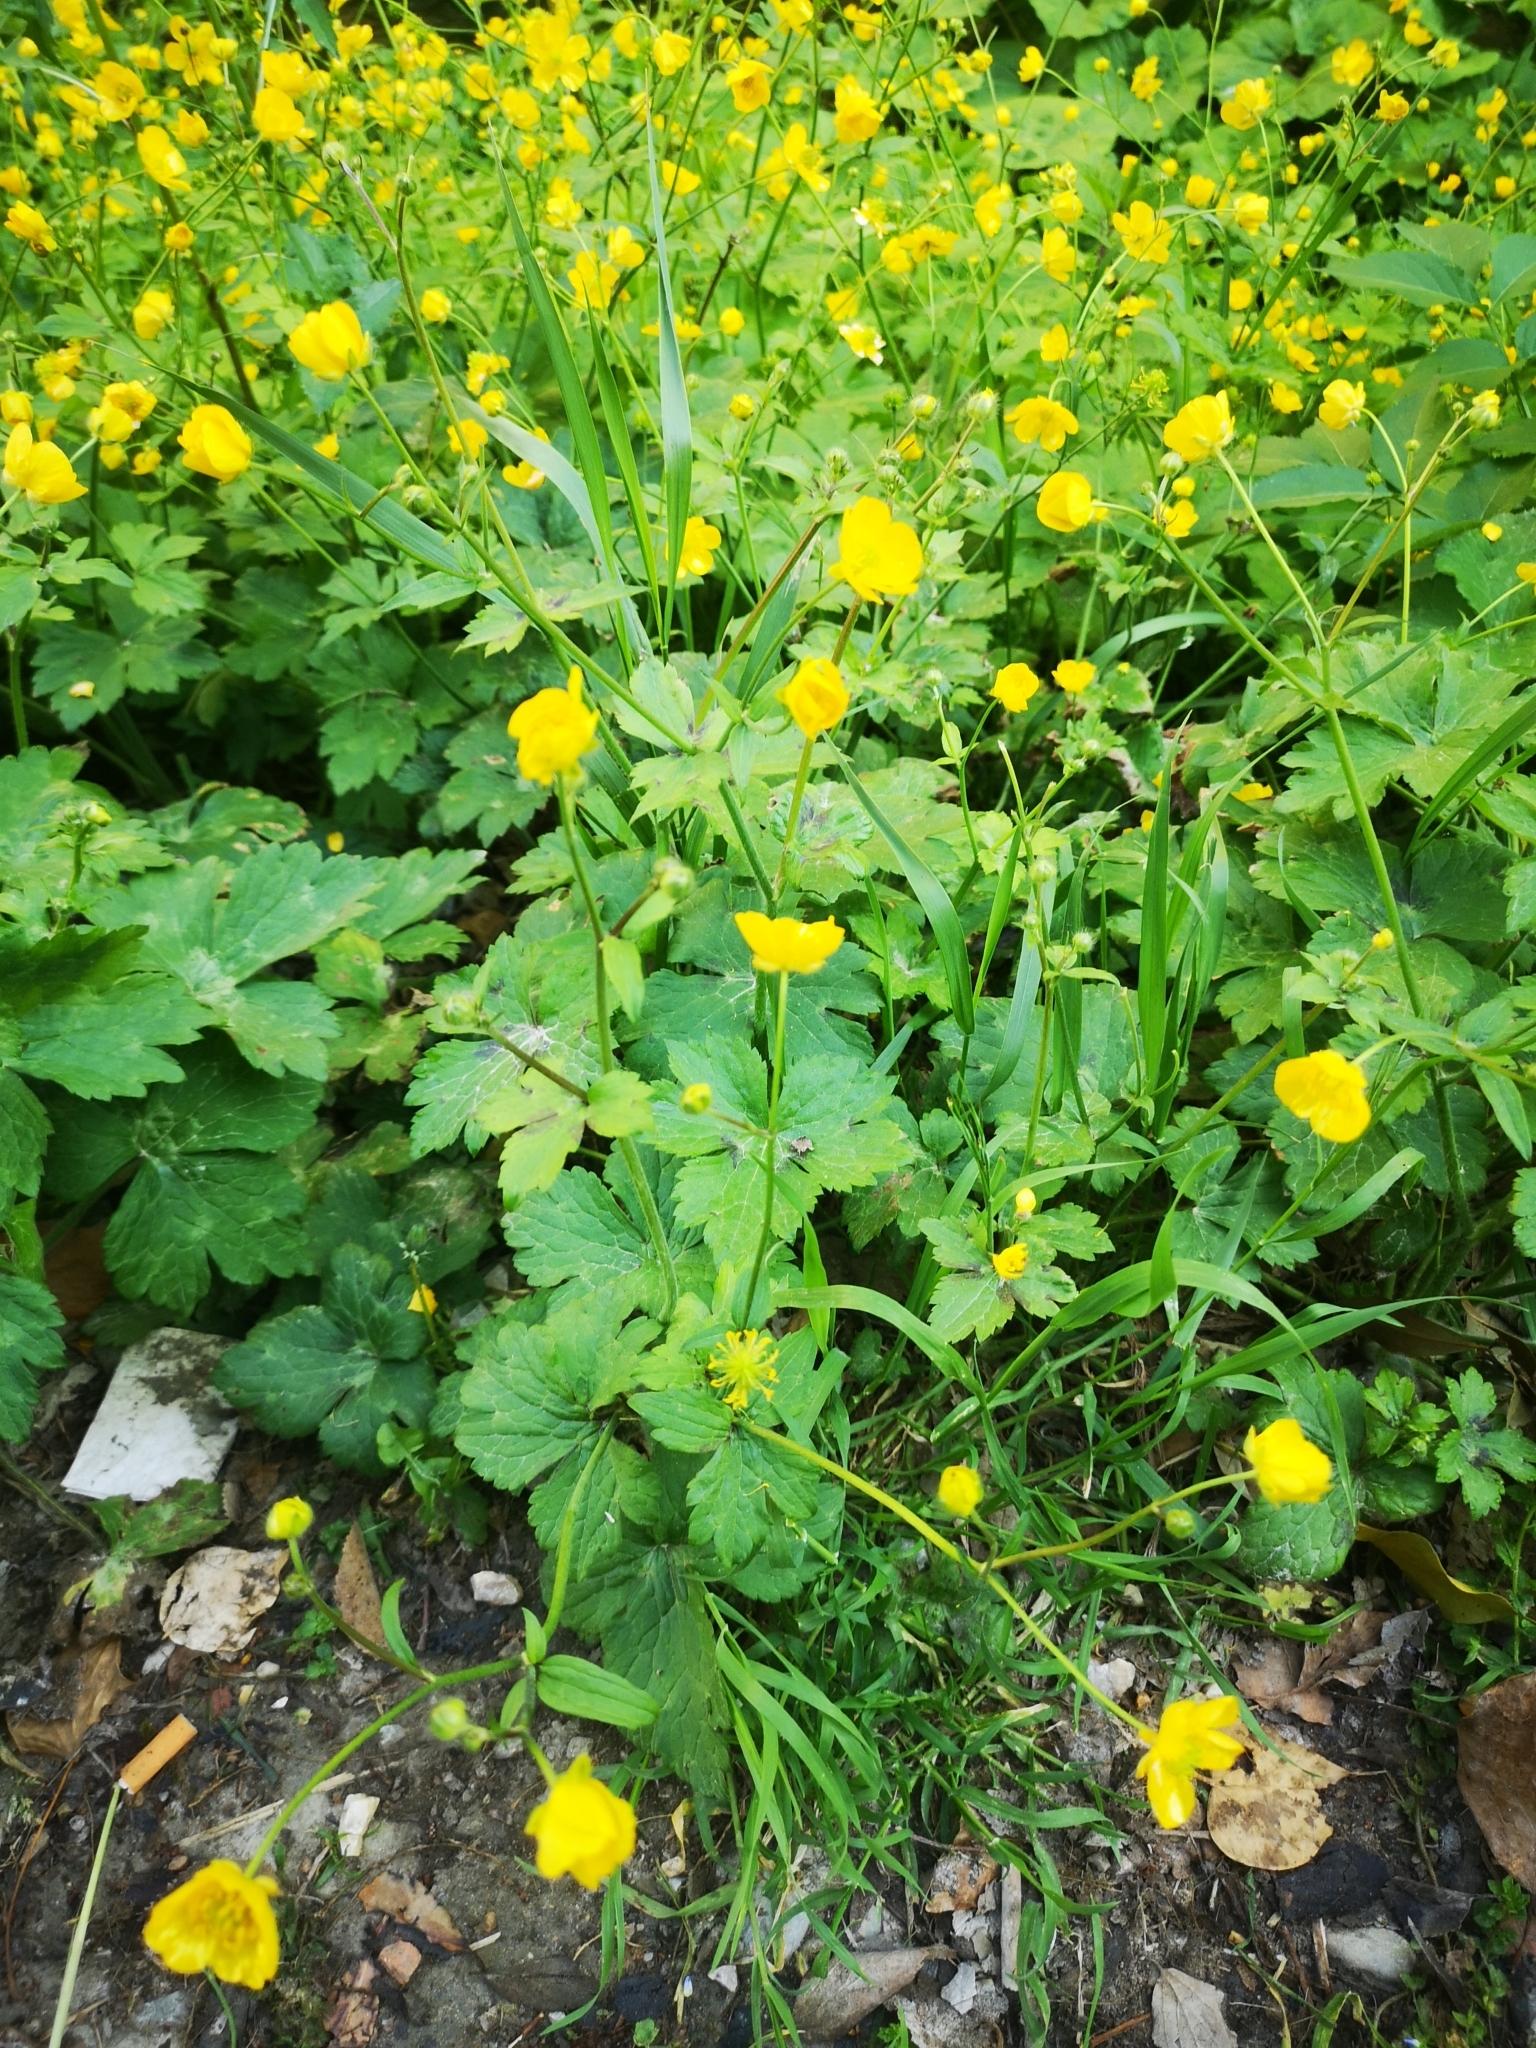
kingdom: Plantae
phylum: Tracheophyta
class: Magnoliopsida
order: Ranunculales
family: Ranunculaceae
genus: Ranunculus
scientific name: Ranunculus lanuginosus
